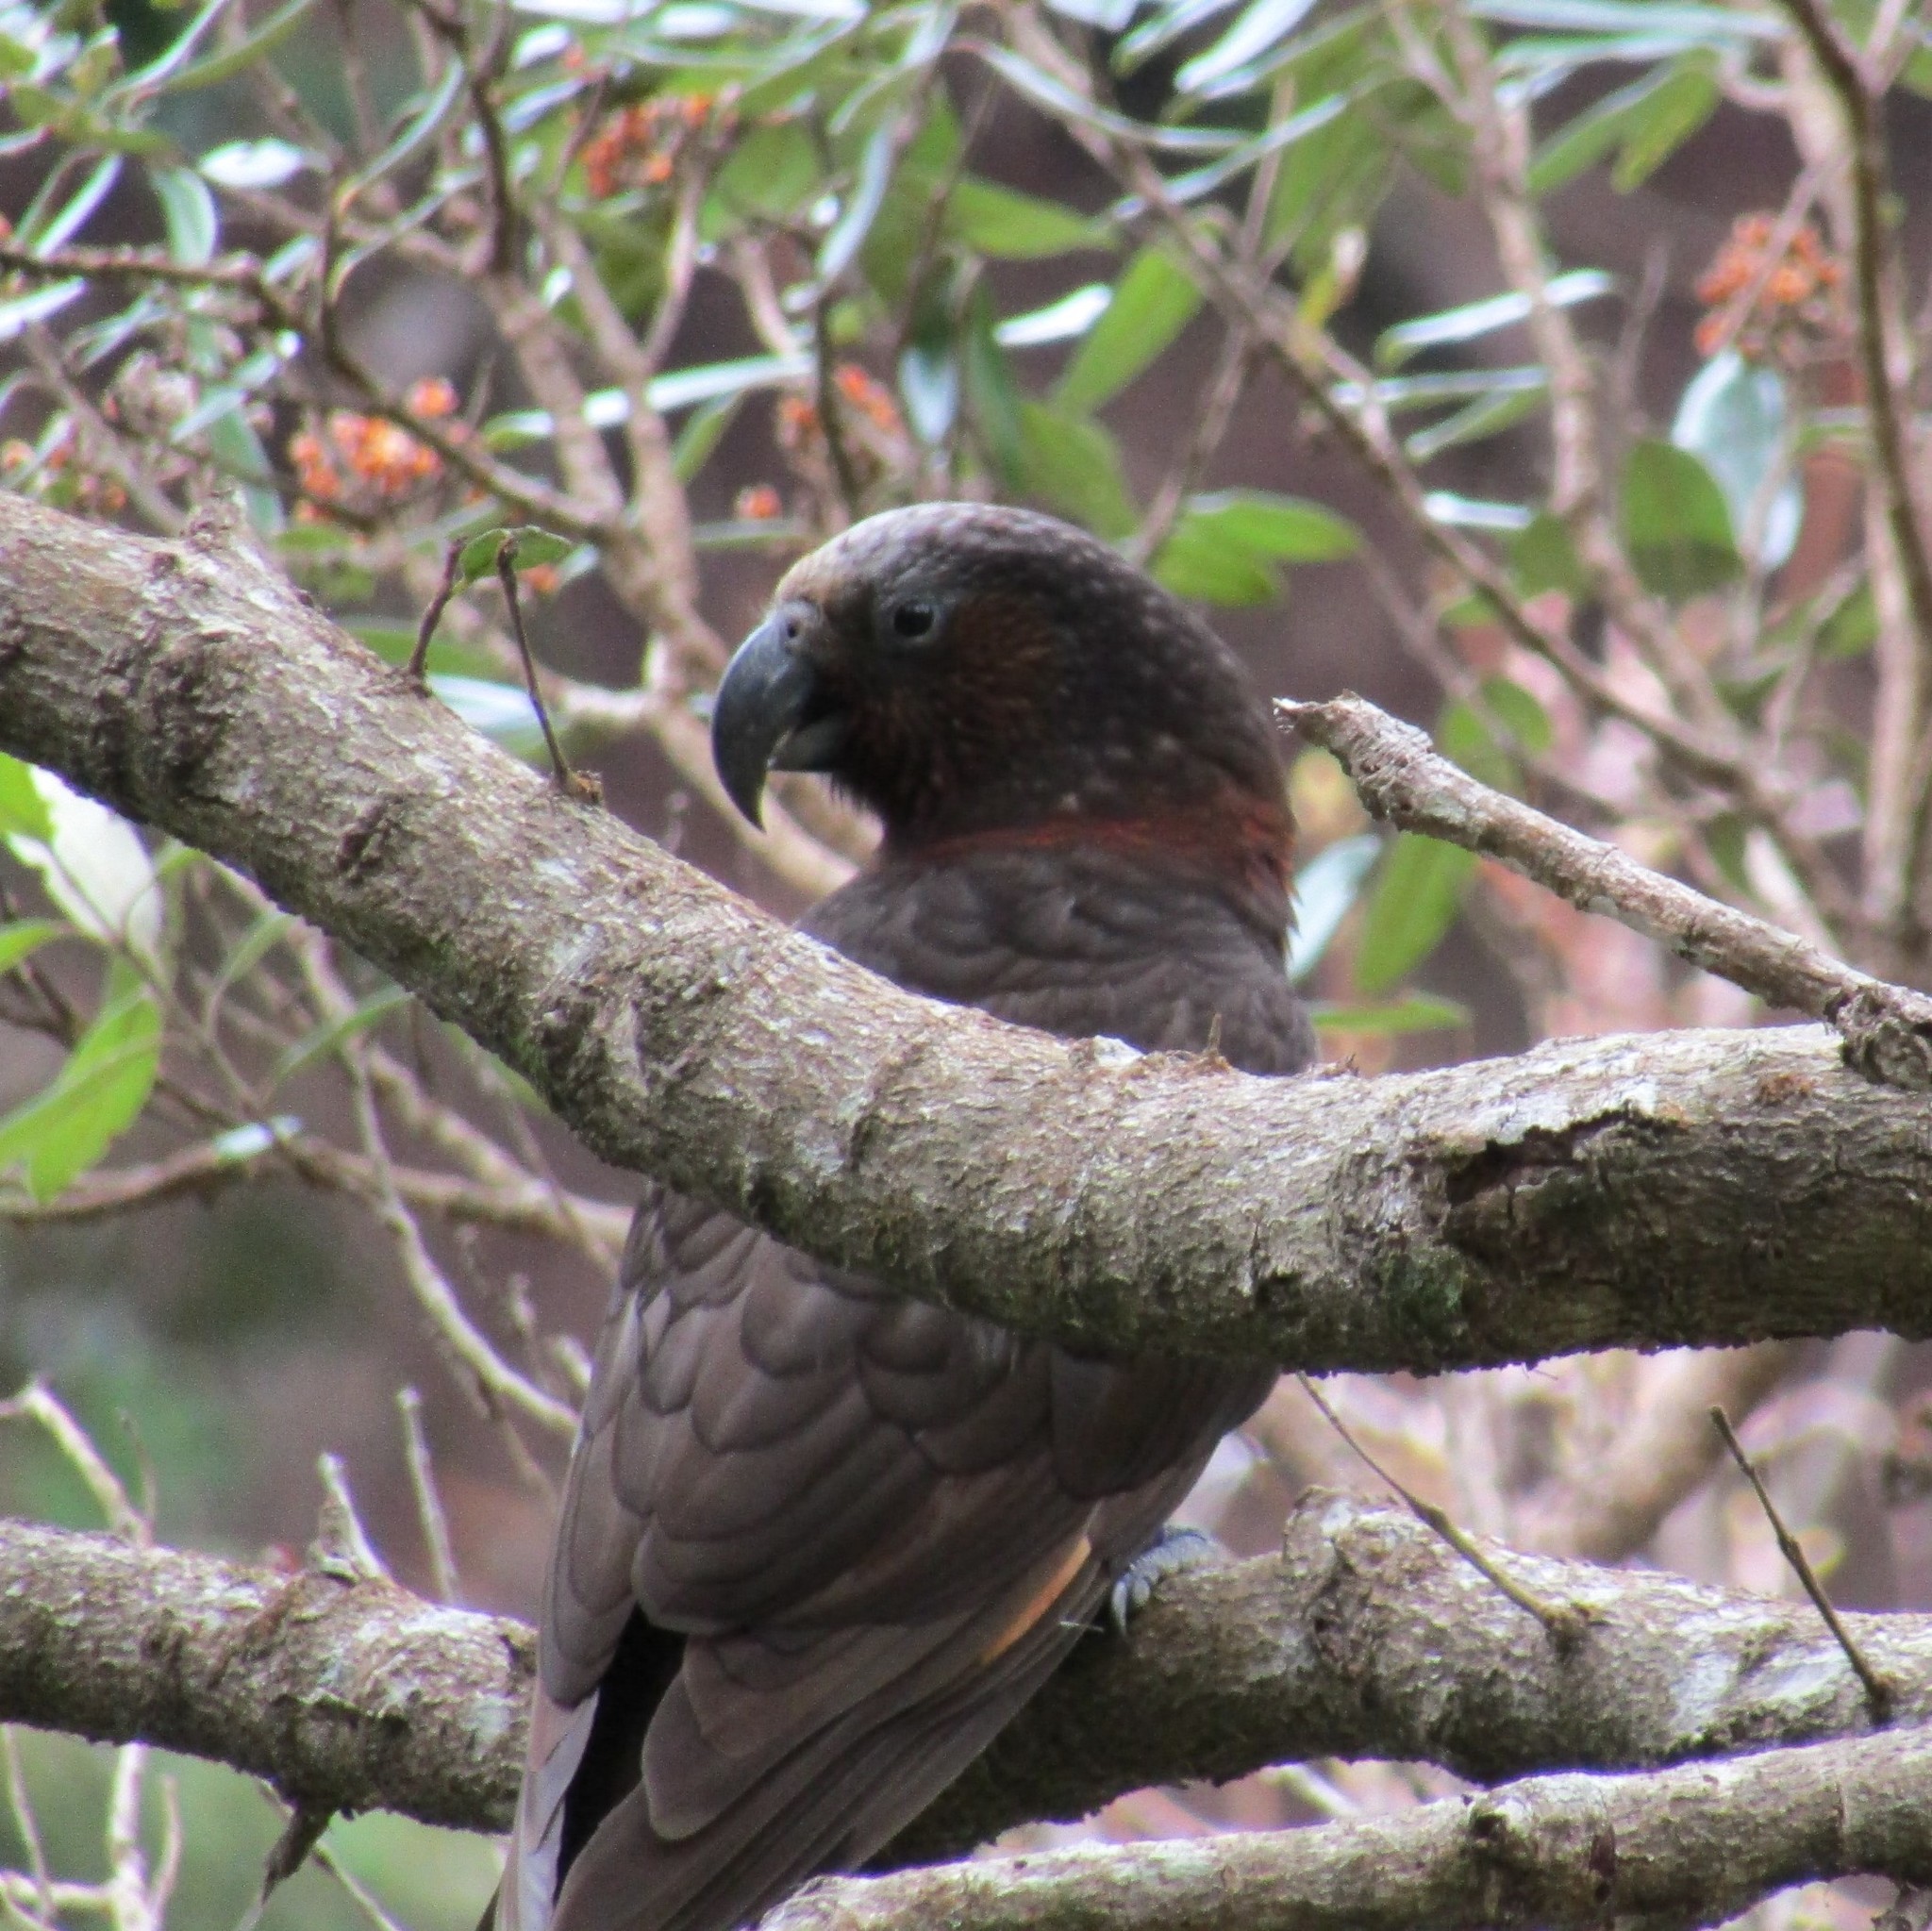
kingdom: Animalia
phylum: Chordata
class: Aves
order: Psittaciformes
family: Psittacidae
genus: Nestor
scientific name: Nestor meridionalis
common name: New zealand kaka
